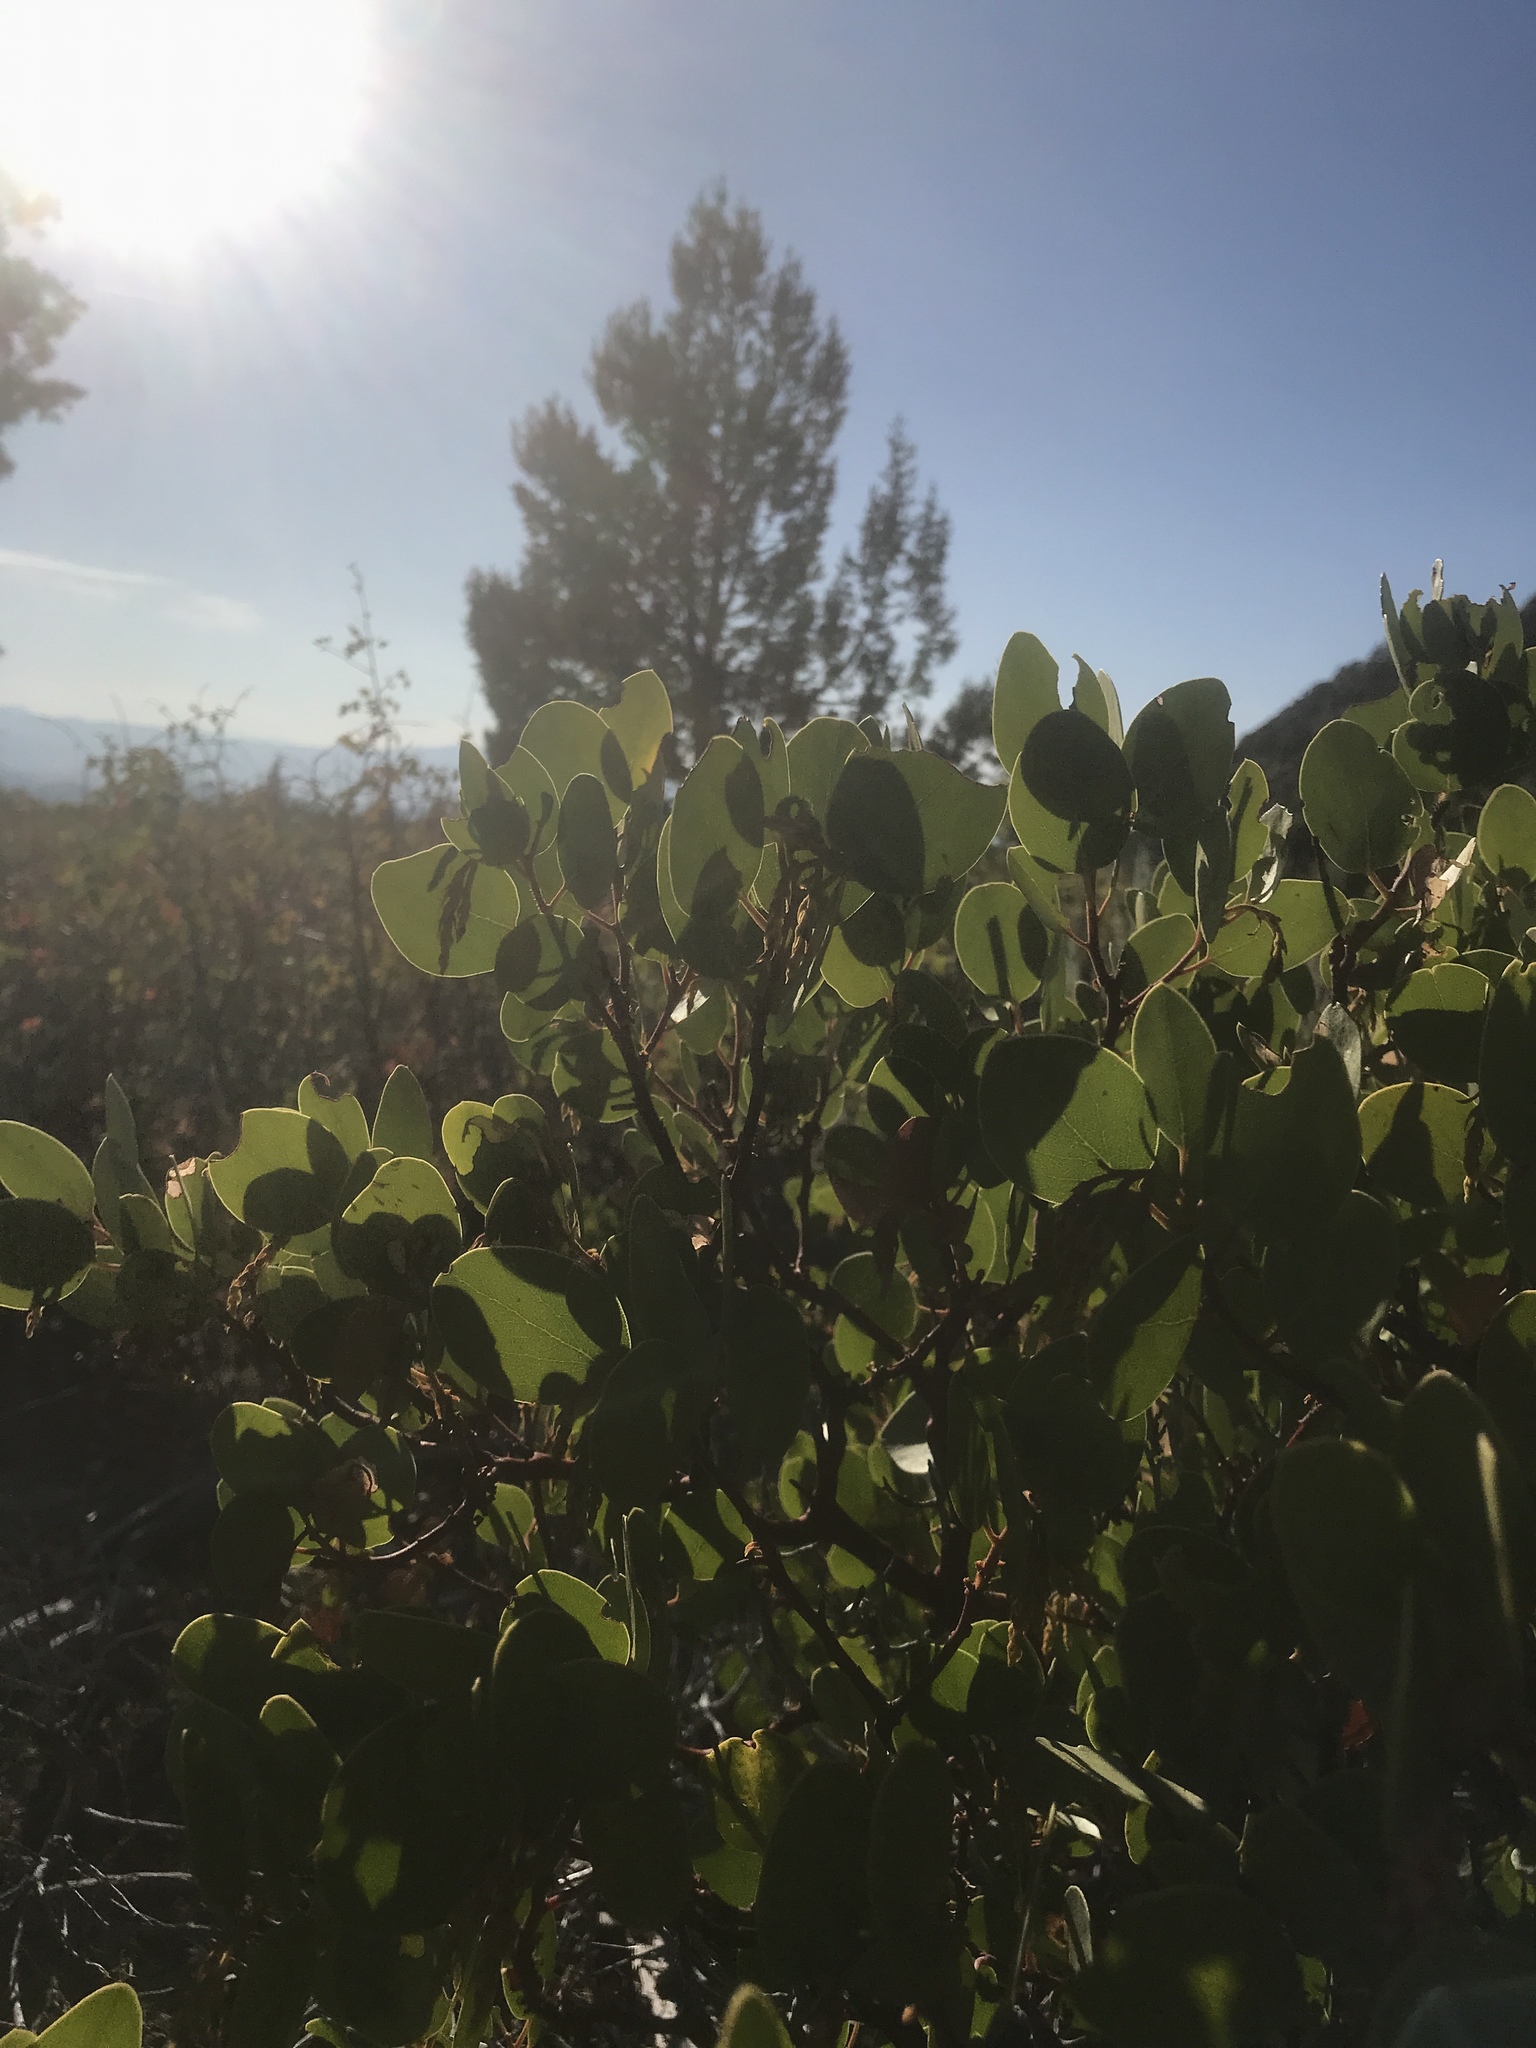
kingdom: Plantae
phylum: Tracheophyta
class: Magnoliopsida
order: Ericales
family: Ericaceae
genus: Arctostaphylos
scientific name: Arctostaphylos patula
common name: Green-leaf manzanita
